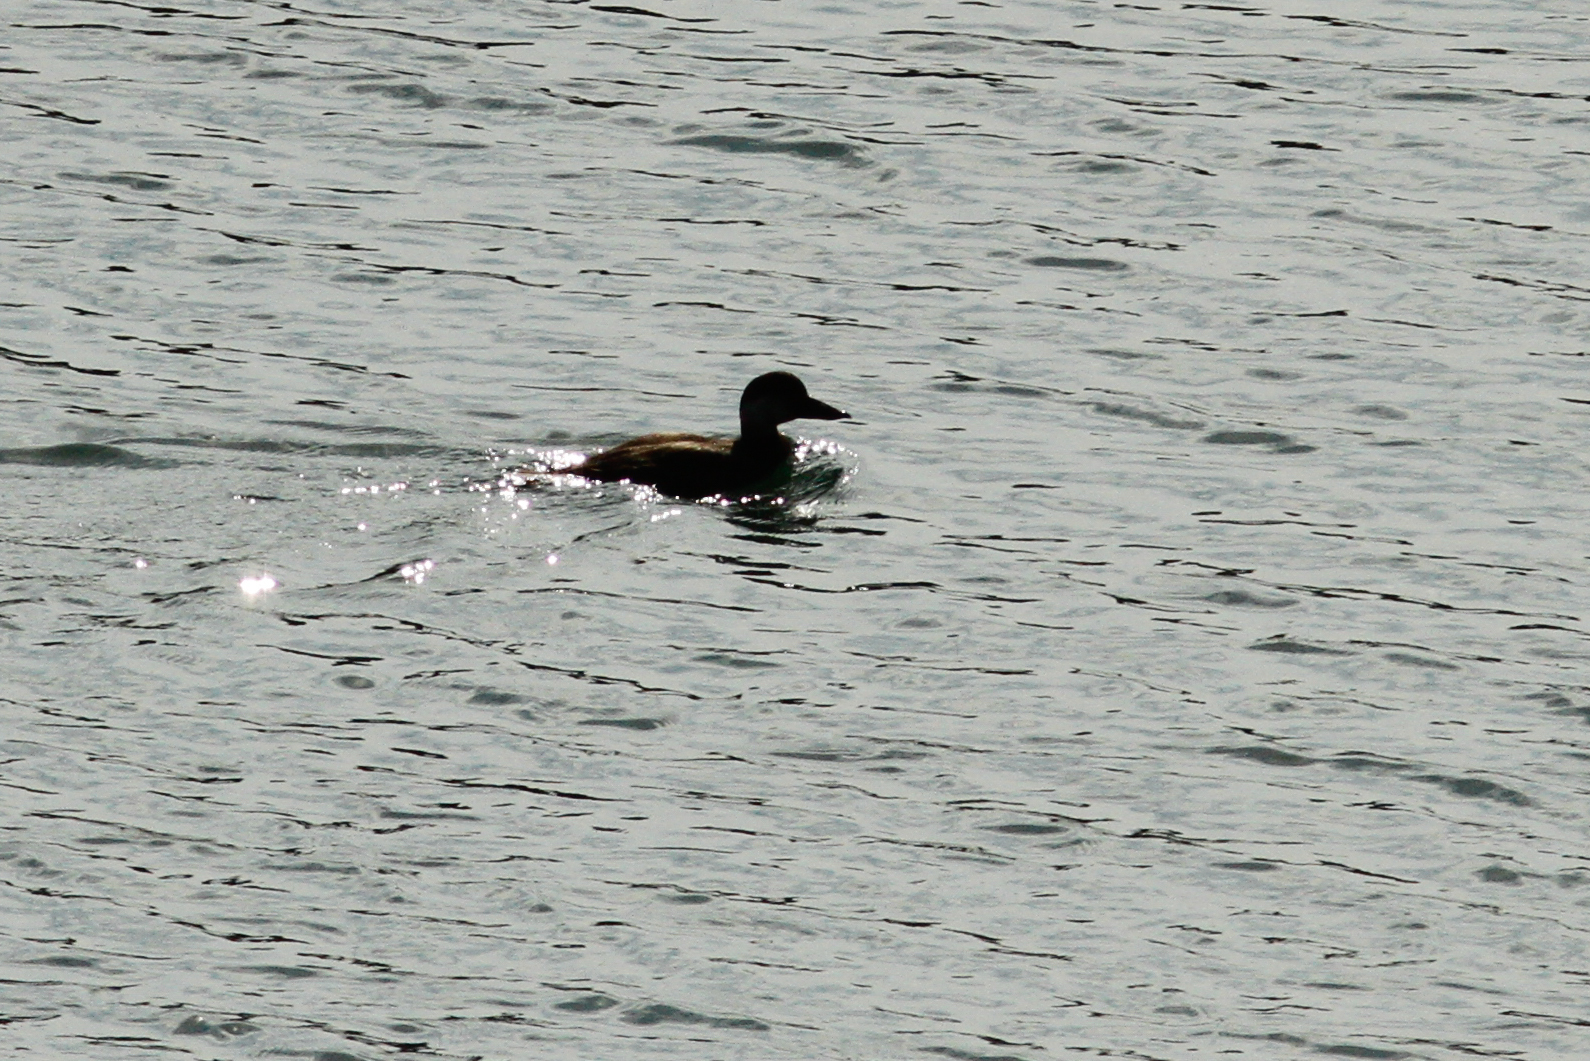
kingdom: Animalia
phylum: Chordata
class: Aves
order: Anseriformes
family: Anatidae
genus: Melanitta
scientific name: Melanitta nigra
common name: Common scoter
